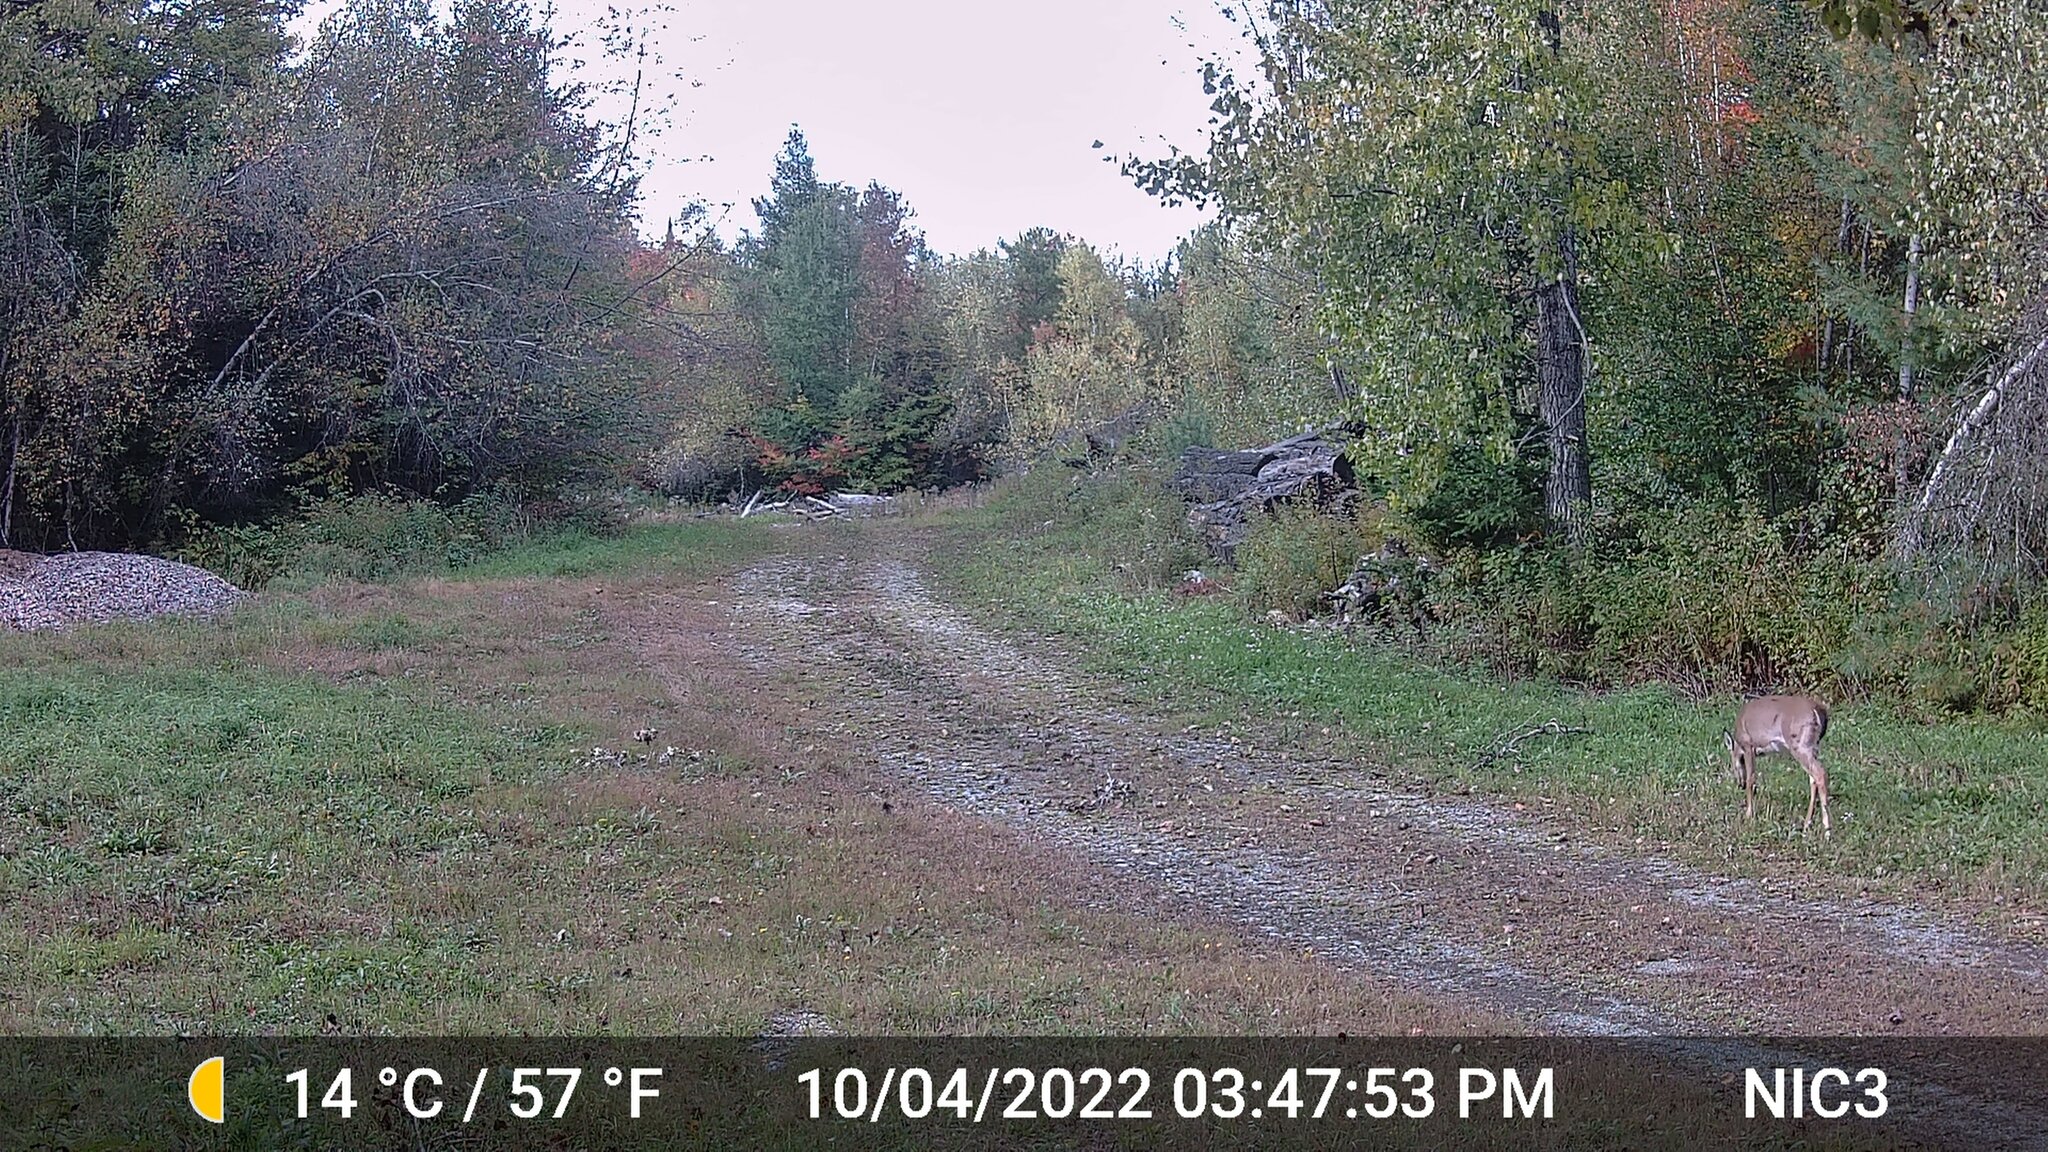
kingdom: Animalia
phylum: Chordata
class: Mammalia
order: Artiodactyla
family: Cervidae
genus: Odocoileus
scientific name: Odocoileus virginianus
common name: White-tailed deer
